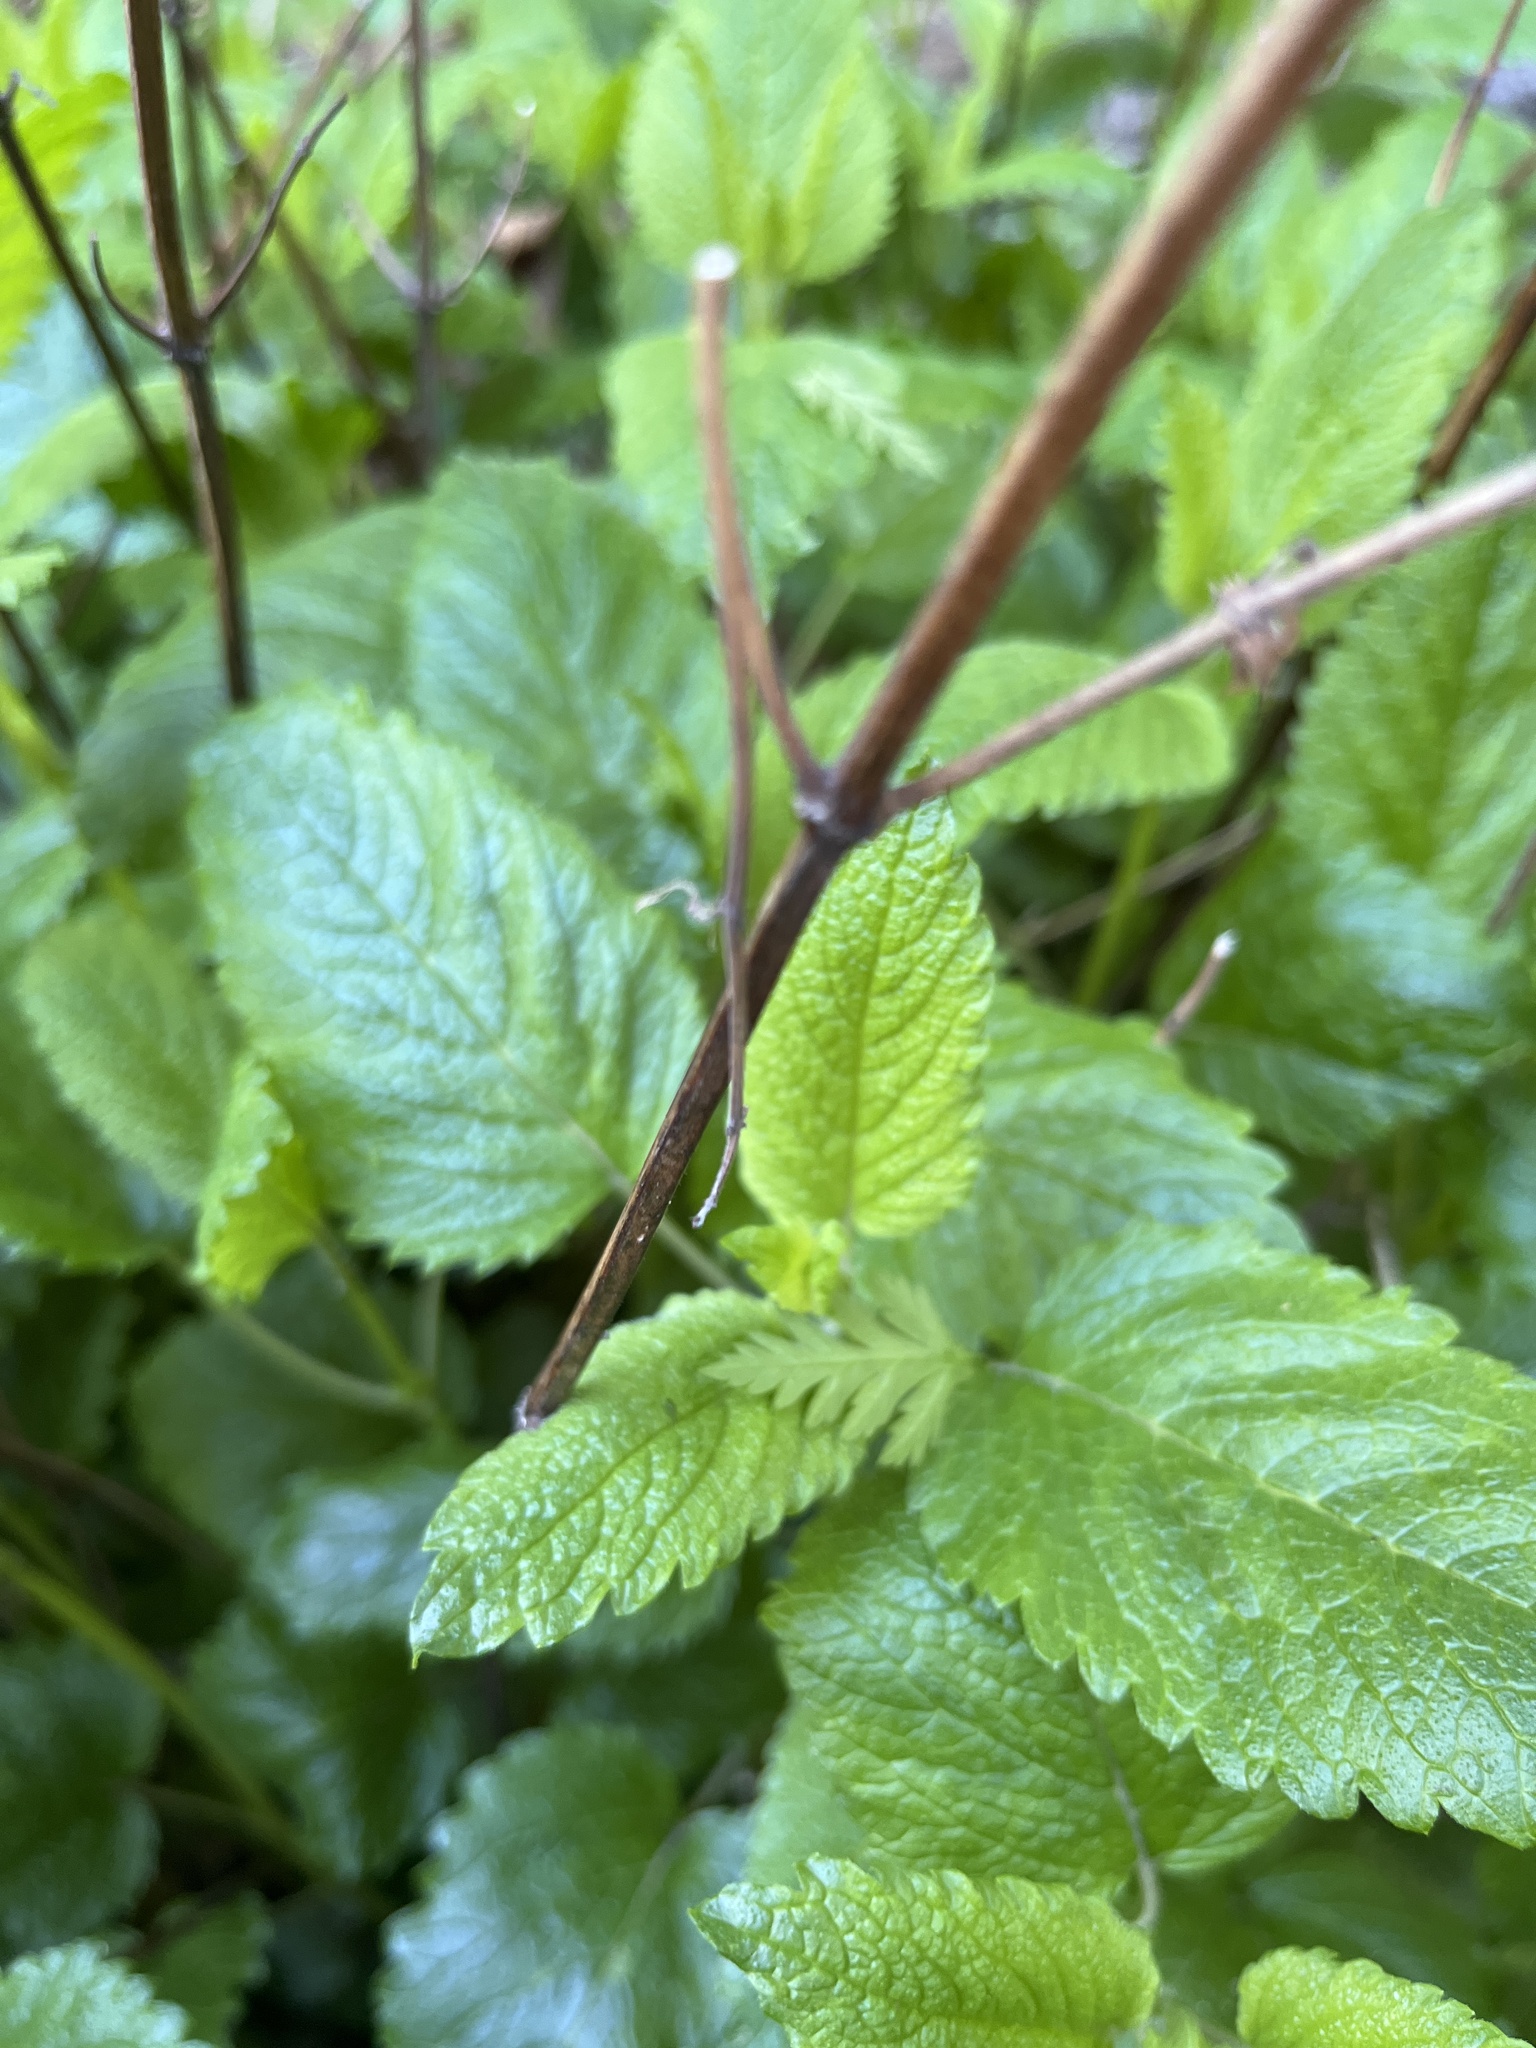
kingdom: Plantae
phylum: Tracheophyta
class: Magnoliopsida
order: Lamiales
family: Lamiaceae
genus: Melissa
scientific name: Melissa officinalis
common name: Balm
